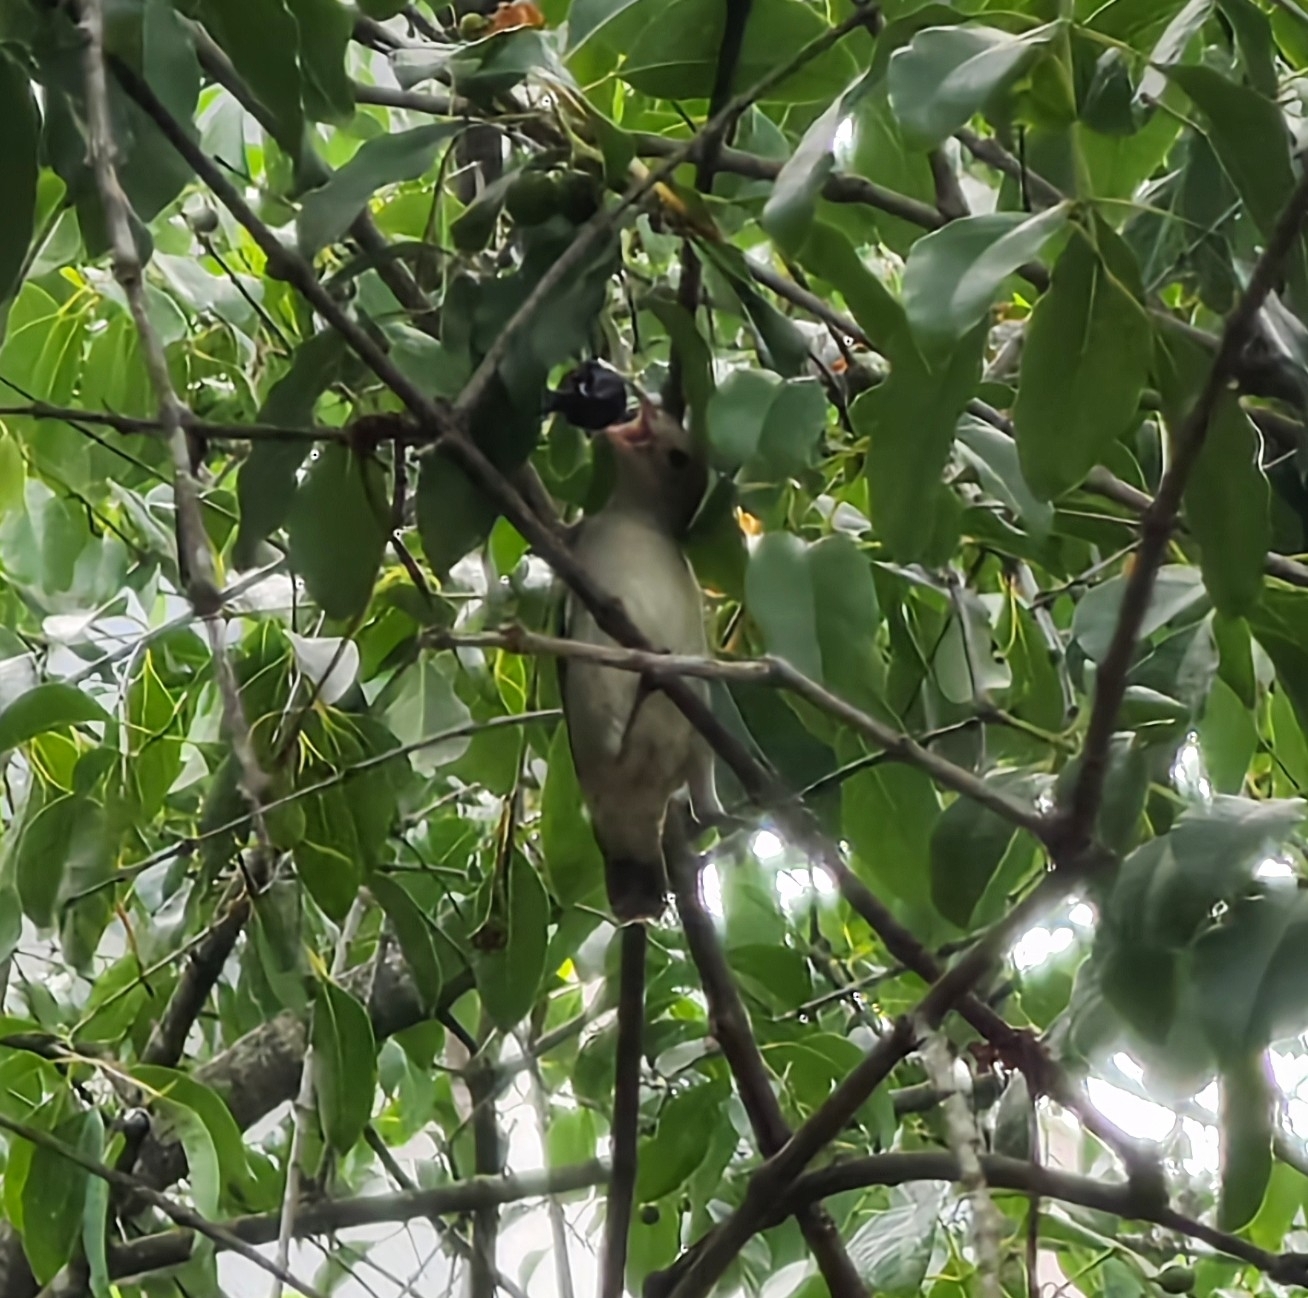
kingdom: Animalia
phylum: Chordata
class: Aves
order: Passeriformes
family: Dicaeidae
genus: Dicaeum
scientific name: Dicaeum erythrorhynchos
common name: Pale-billed flowerpecker
